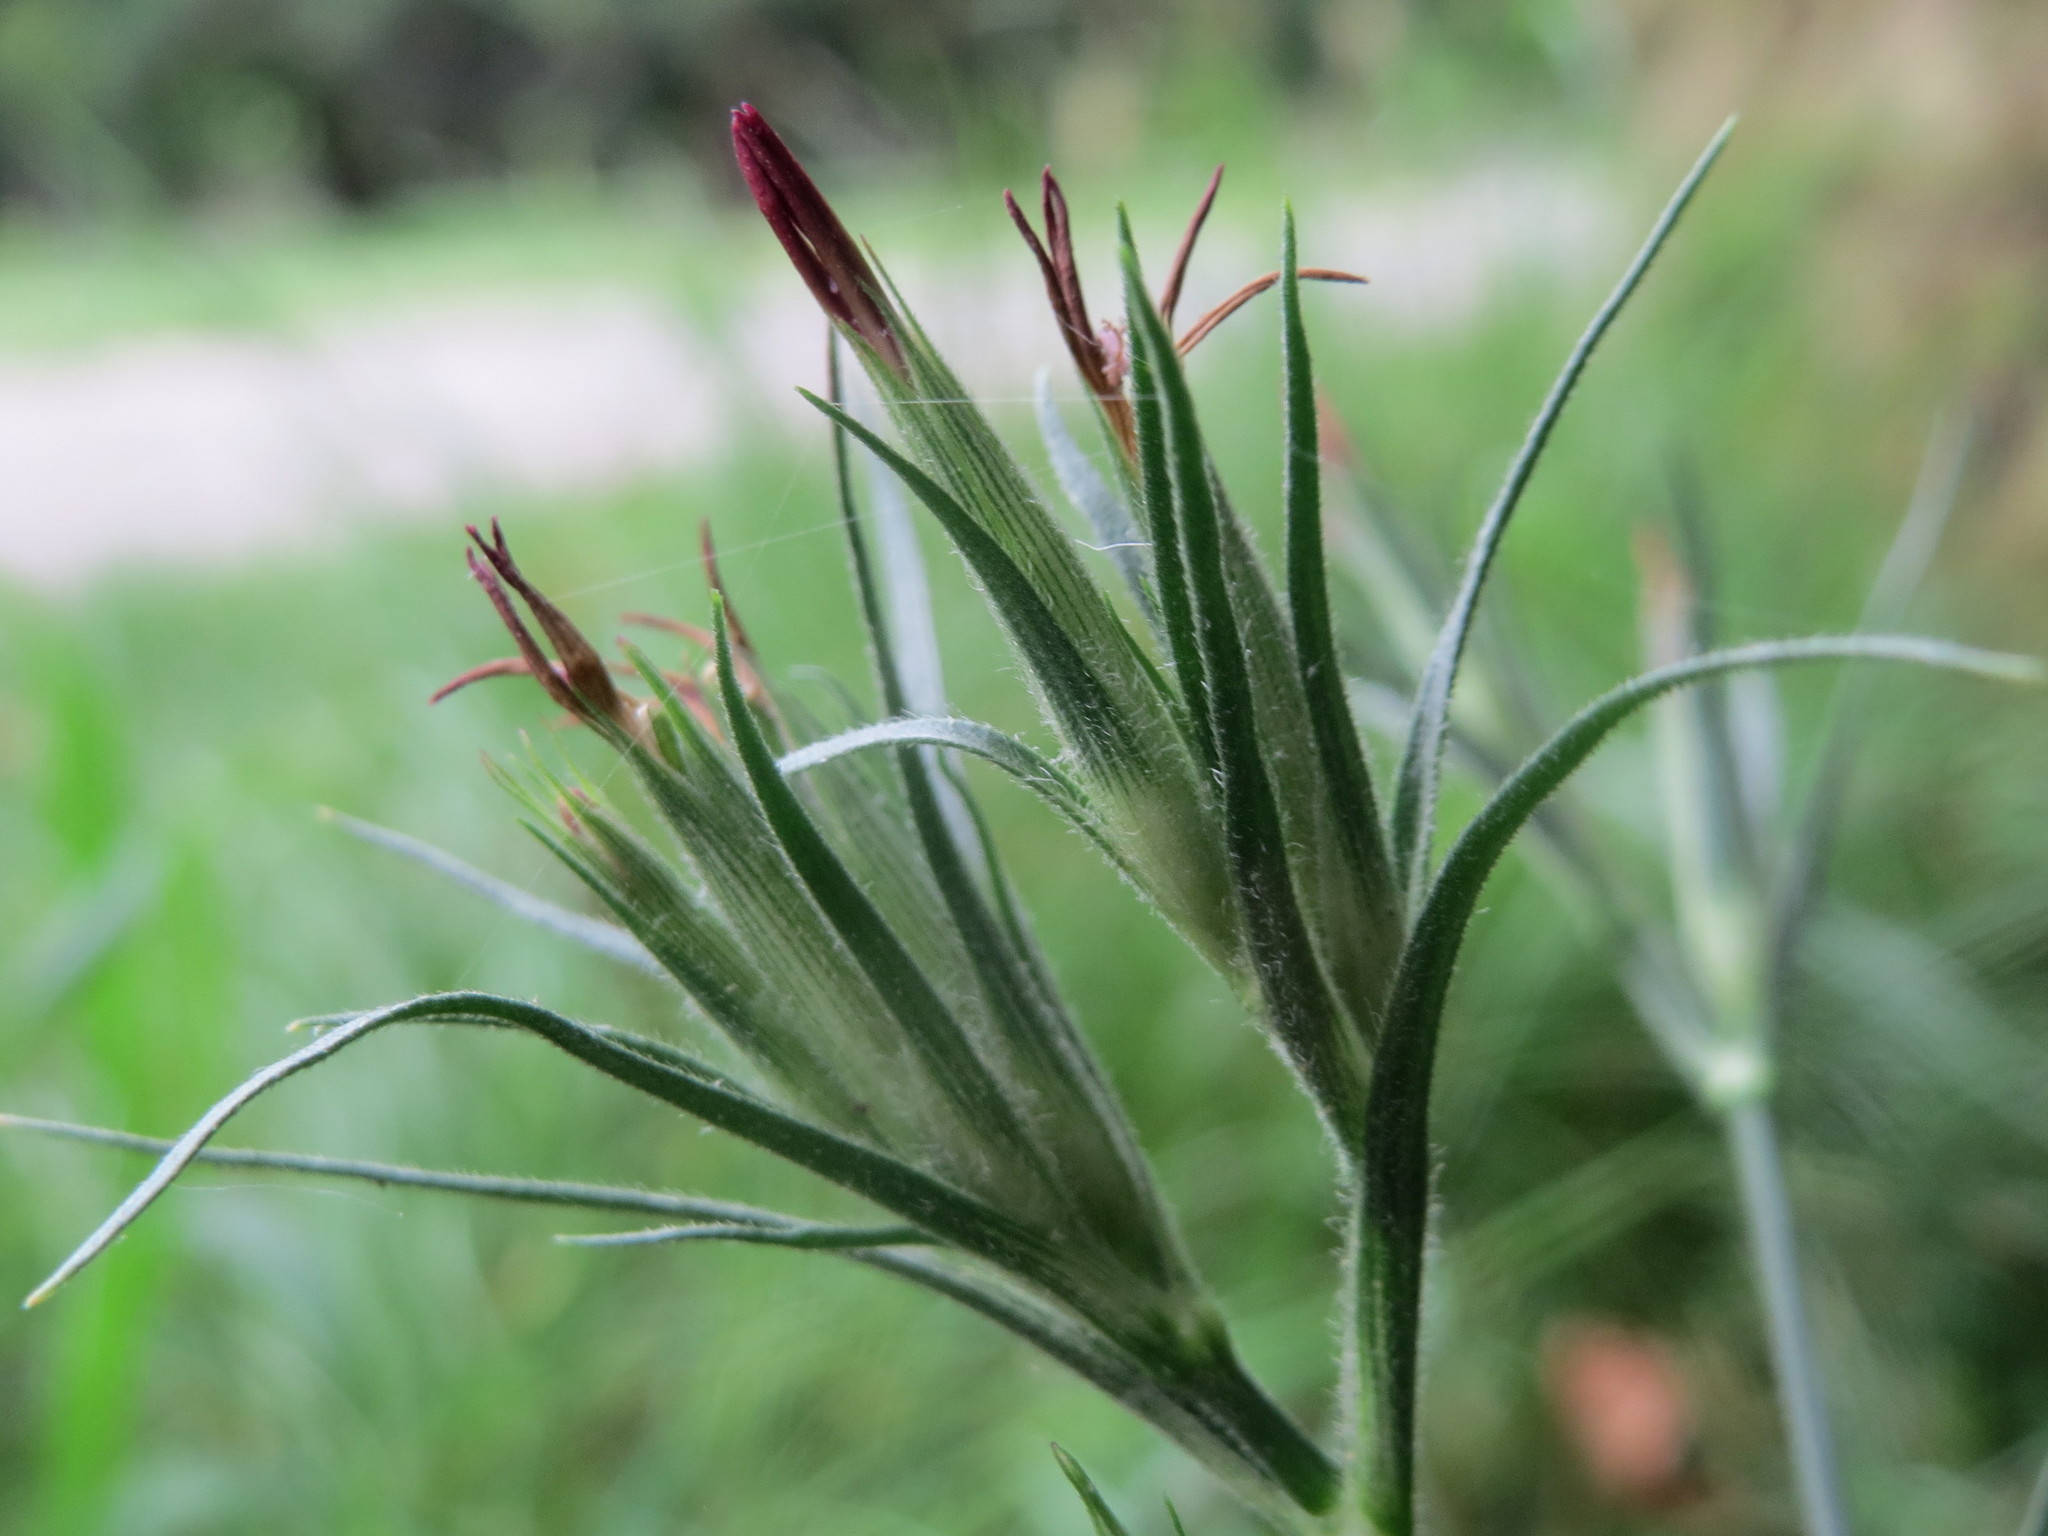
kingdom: Plantae
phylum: Tracheophyta
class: Magnoliopsida
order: Caryophyllales
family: Caryophyllaceae
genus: Dianthus
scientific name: Dianthus armeria
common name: Deptford pink
